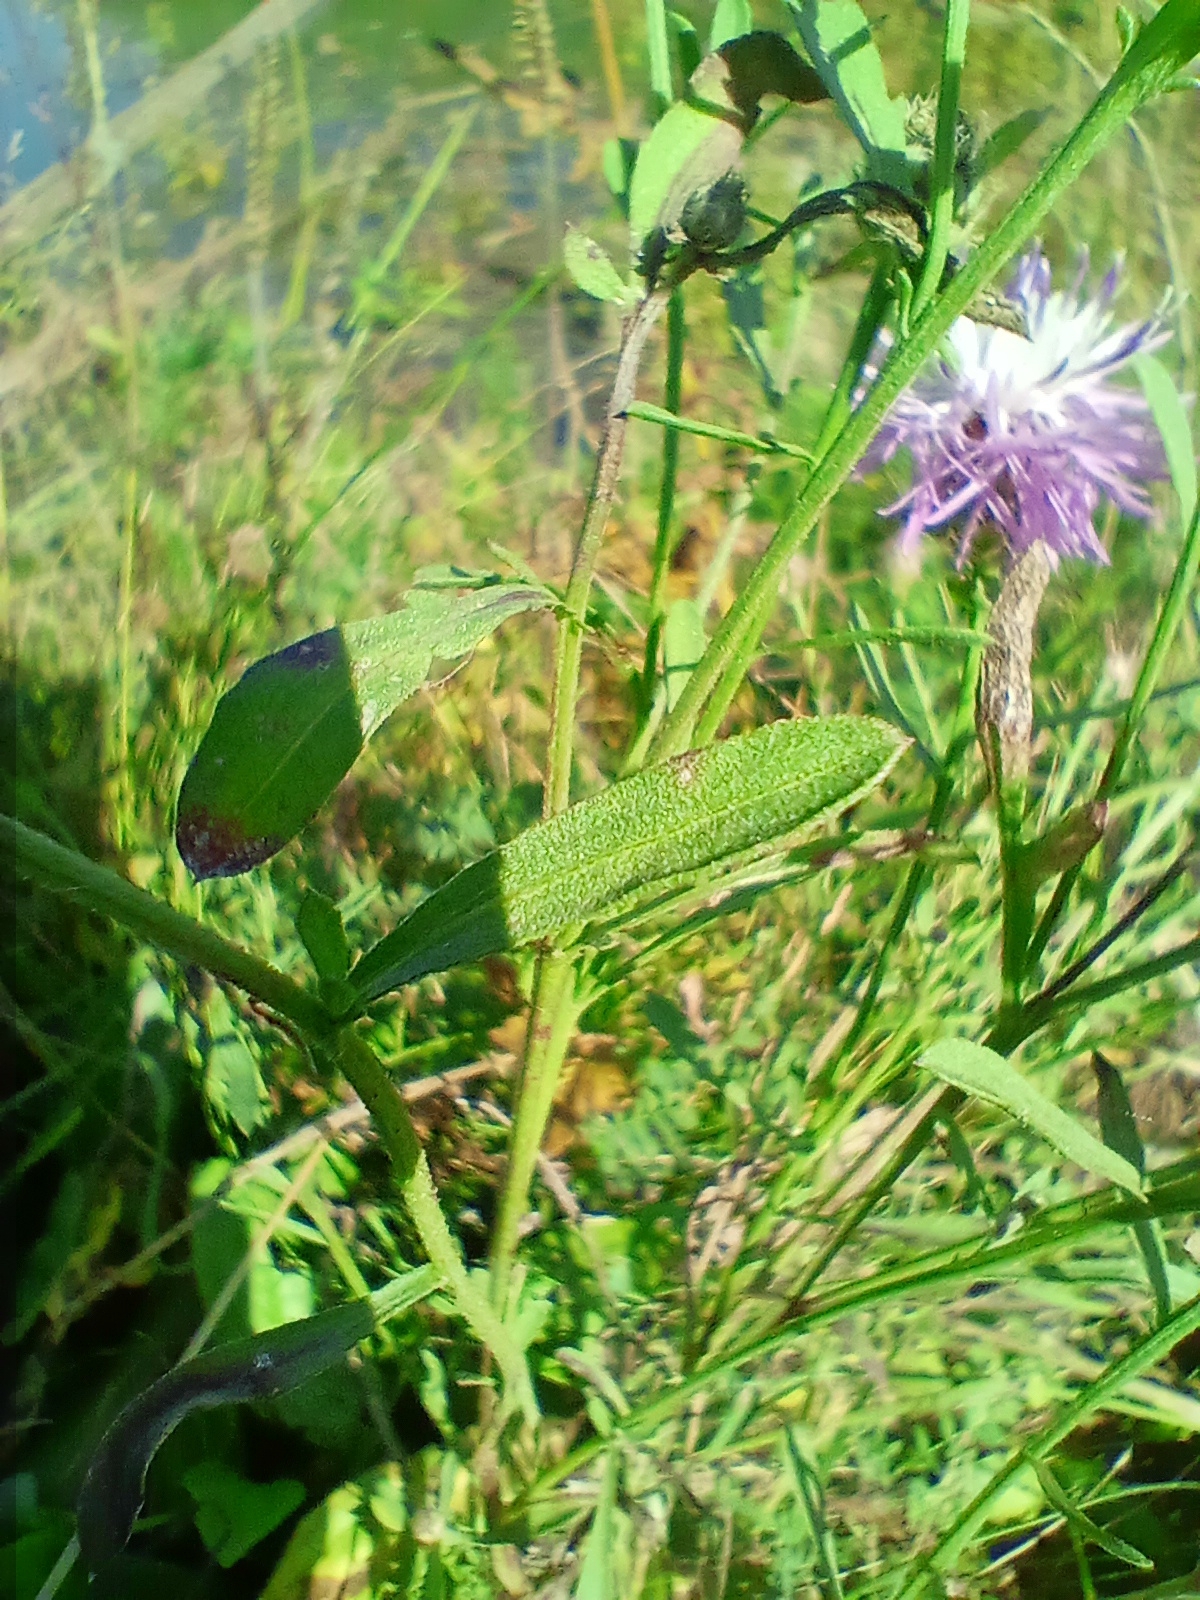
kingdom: Plantae
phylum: Tracheophyta
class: Magnoliopsida
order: Asterales
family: Asteraceae
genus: Centaurea
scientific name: Centaurea stoebe
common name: Spotted knapweed
